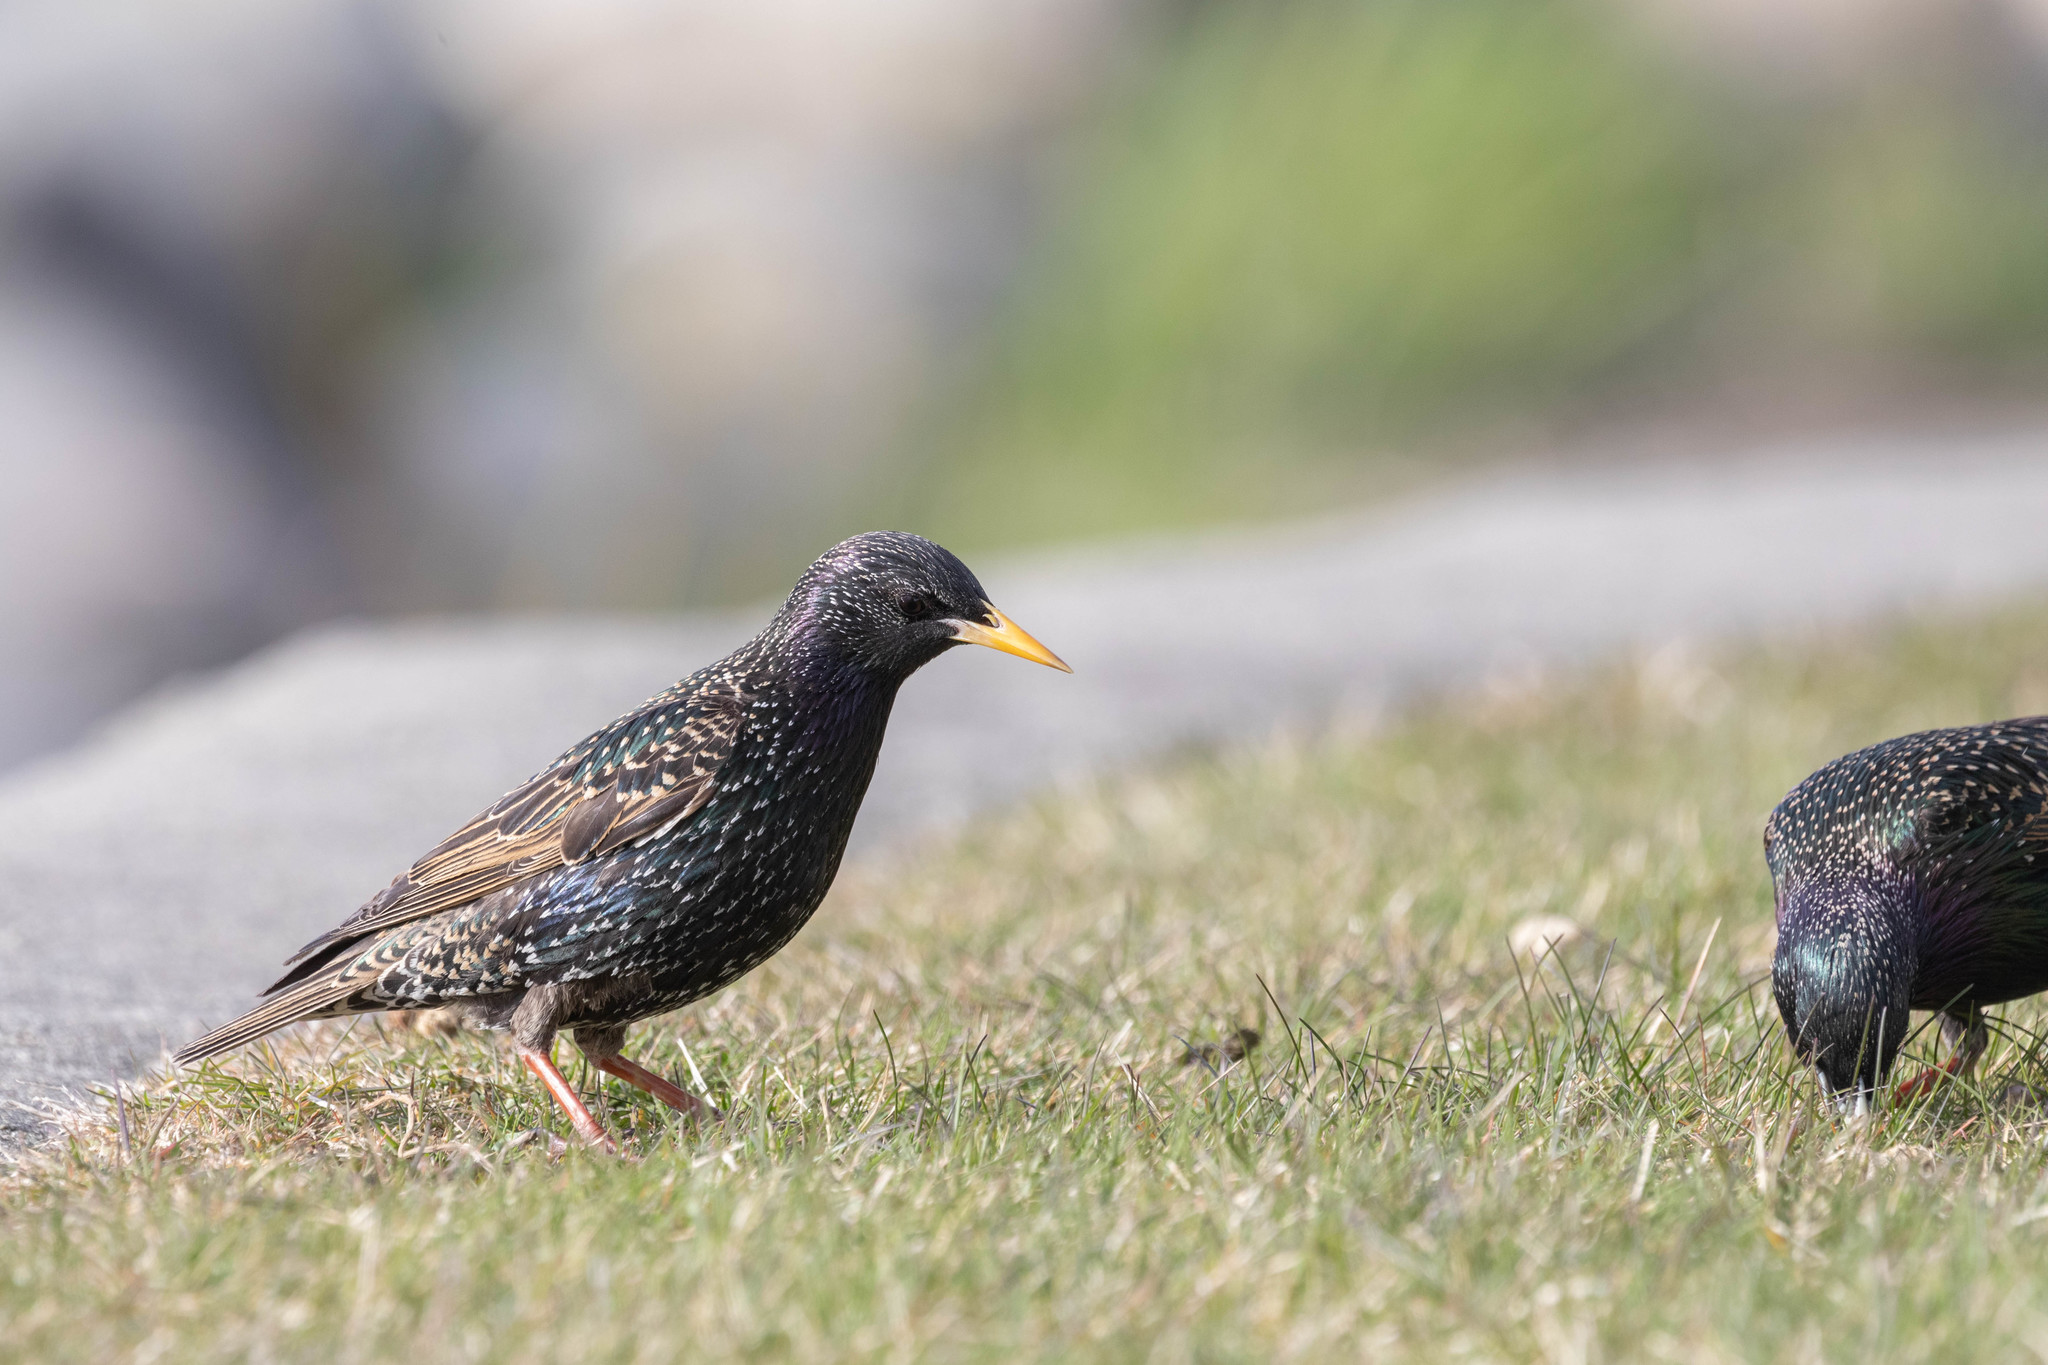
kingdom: Animalia
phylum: Chordata
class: Aves
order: Passeriformes
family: Sturnidae
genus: Sturnus
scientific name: Sturnus vulgaris
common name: Common starling
